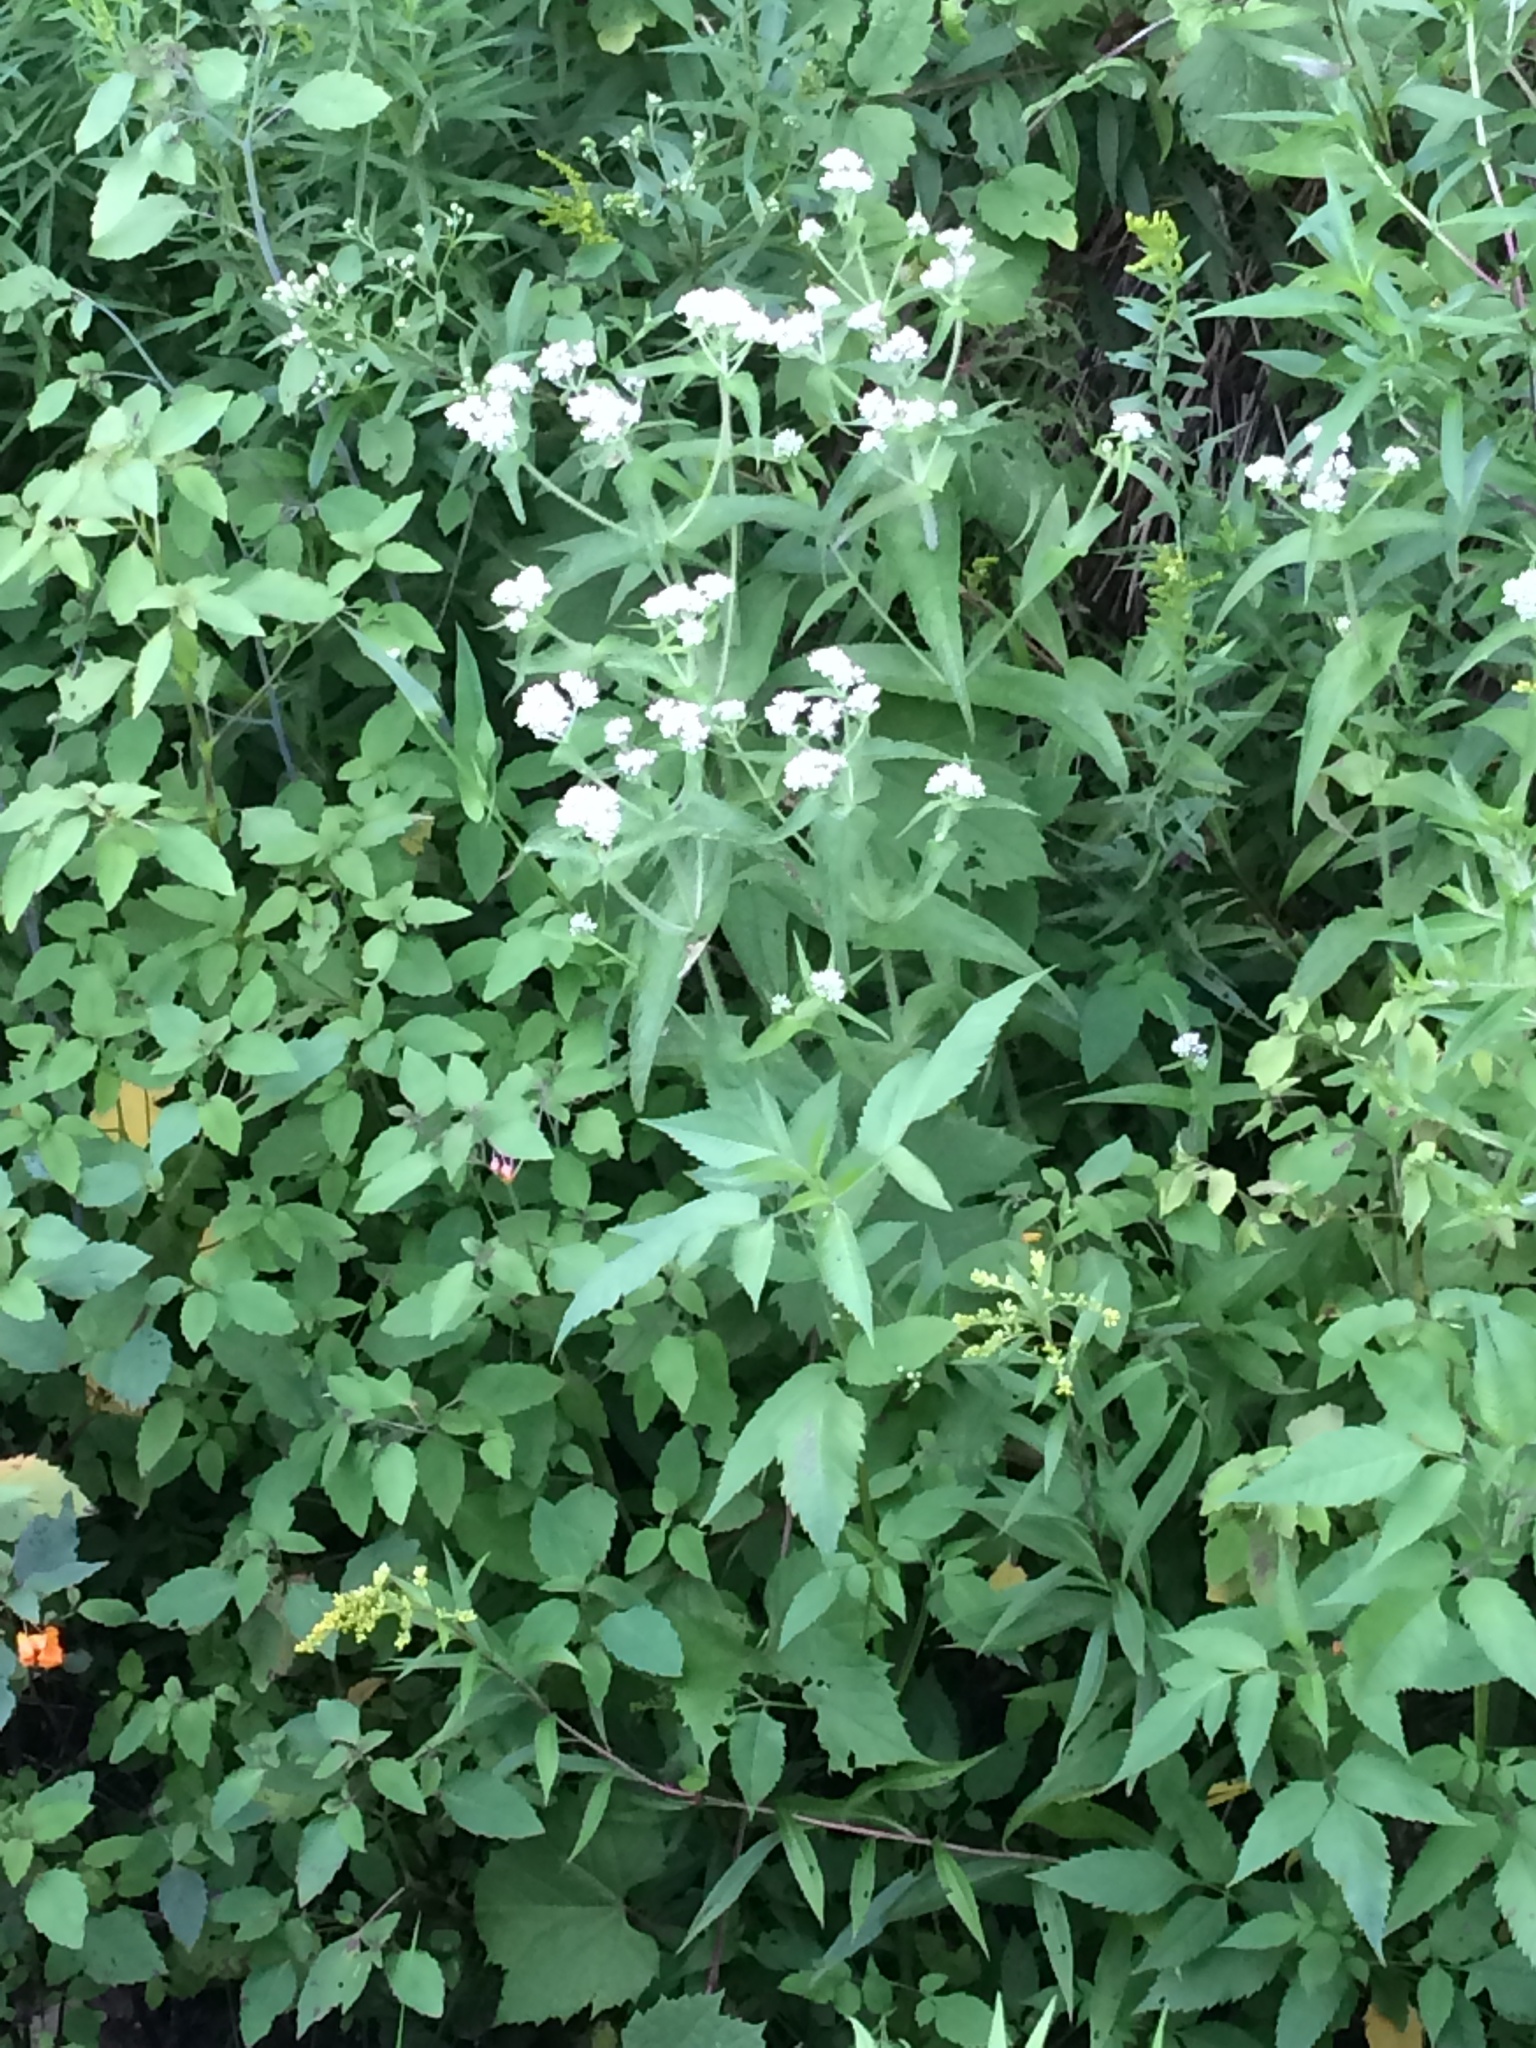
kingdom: Plantae
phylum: Tracheophyta
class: Magnoliopsida
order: Asterales
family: Asteraceae
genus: Eupatorium
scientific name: Eupatorium perfoliatum
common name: Boneset
